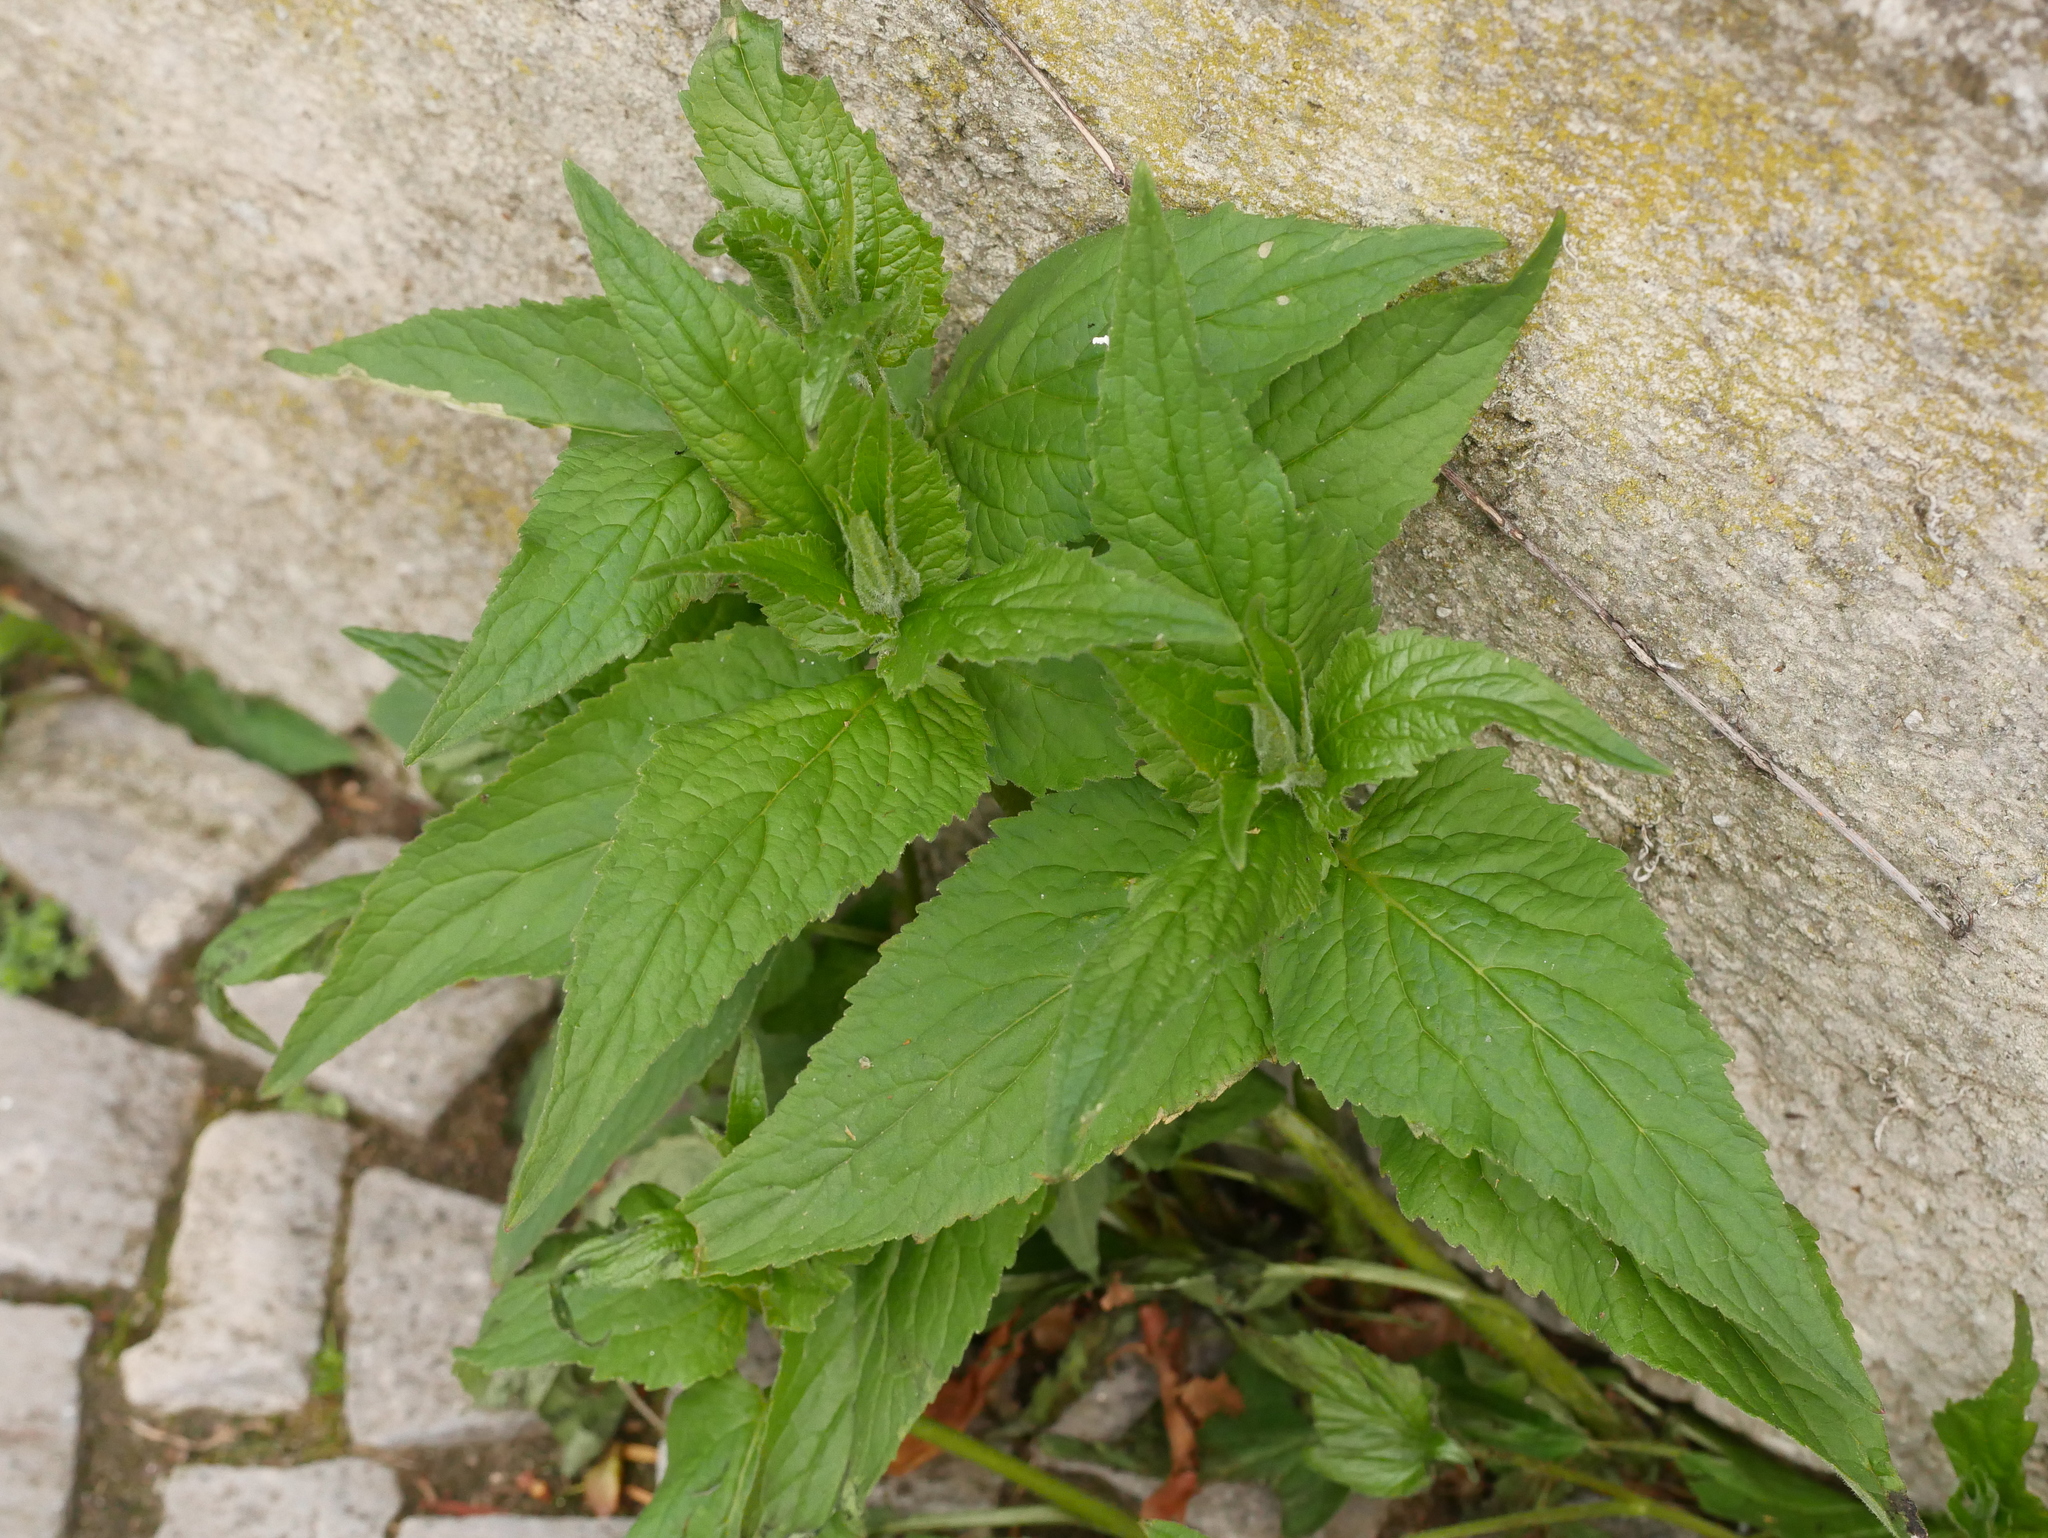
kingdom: Plantae
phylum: Tracheophyta
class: Magnoliopsida
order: Asterales
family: Campanulaceae
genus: Campanula
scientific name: Campanula rapunculoides
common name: Creeping bellflower
